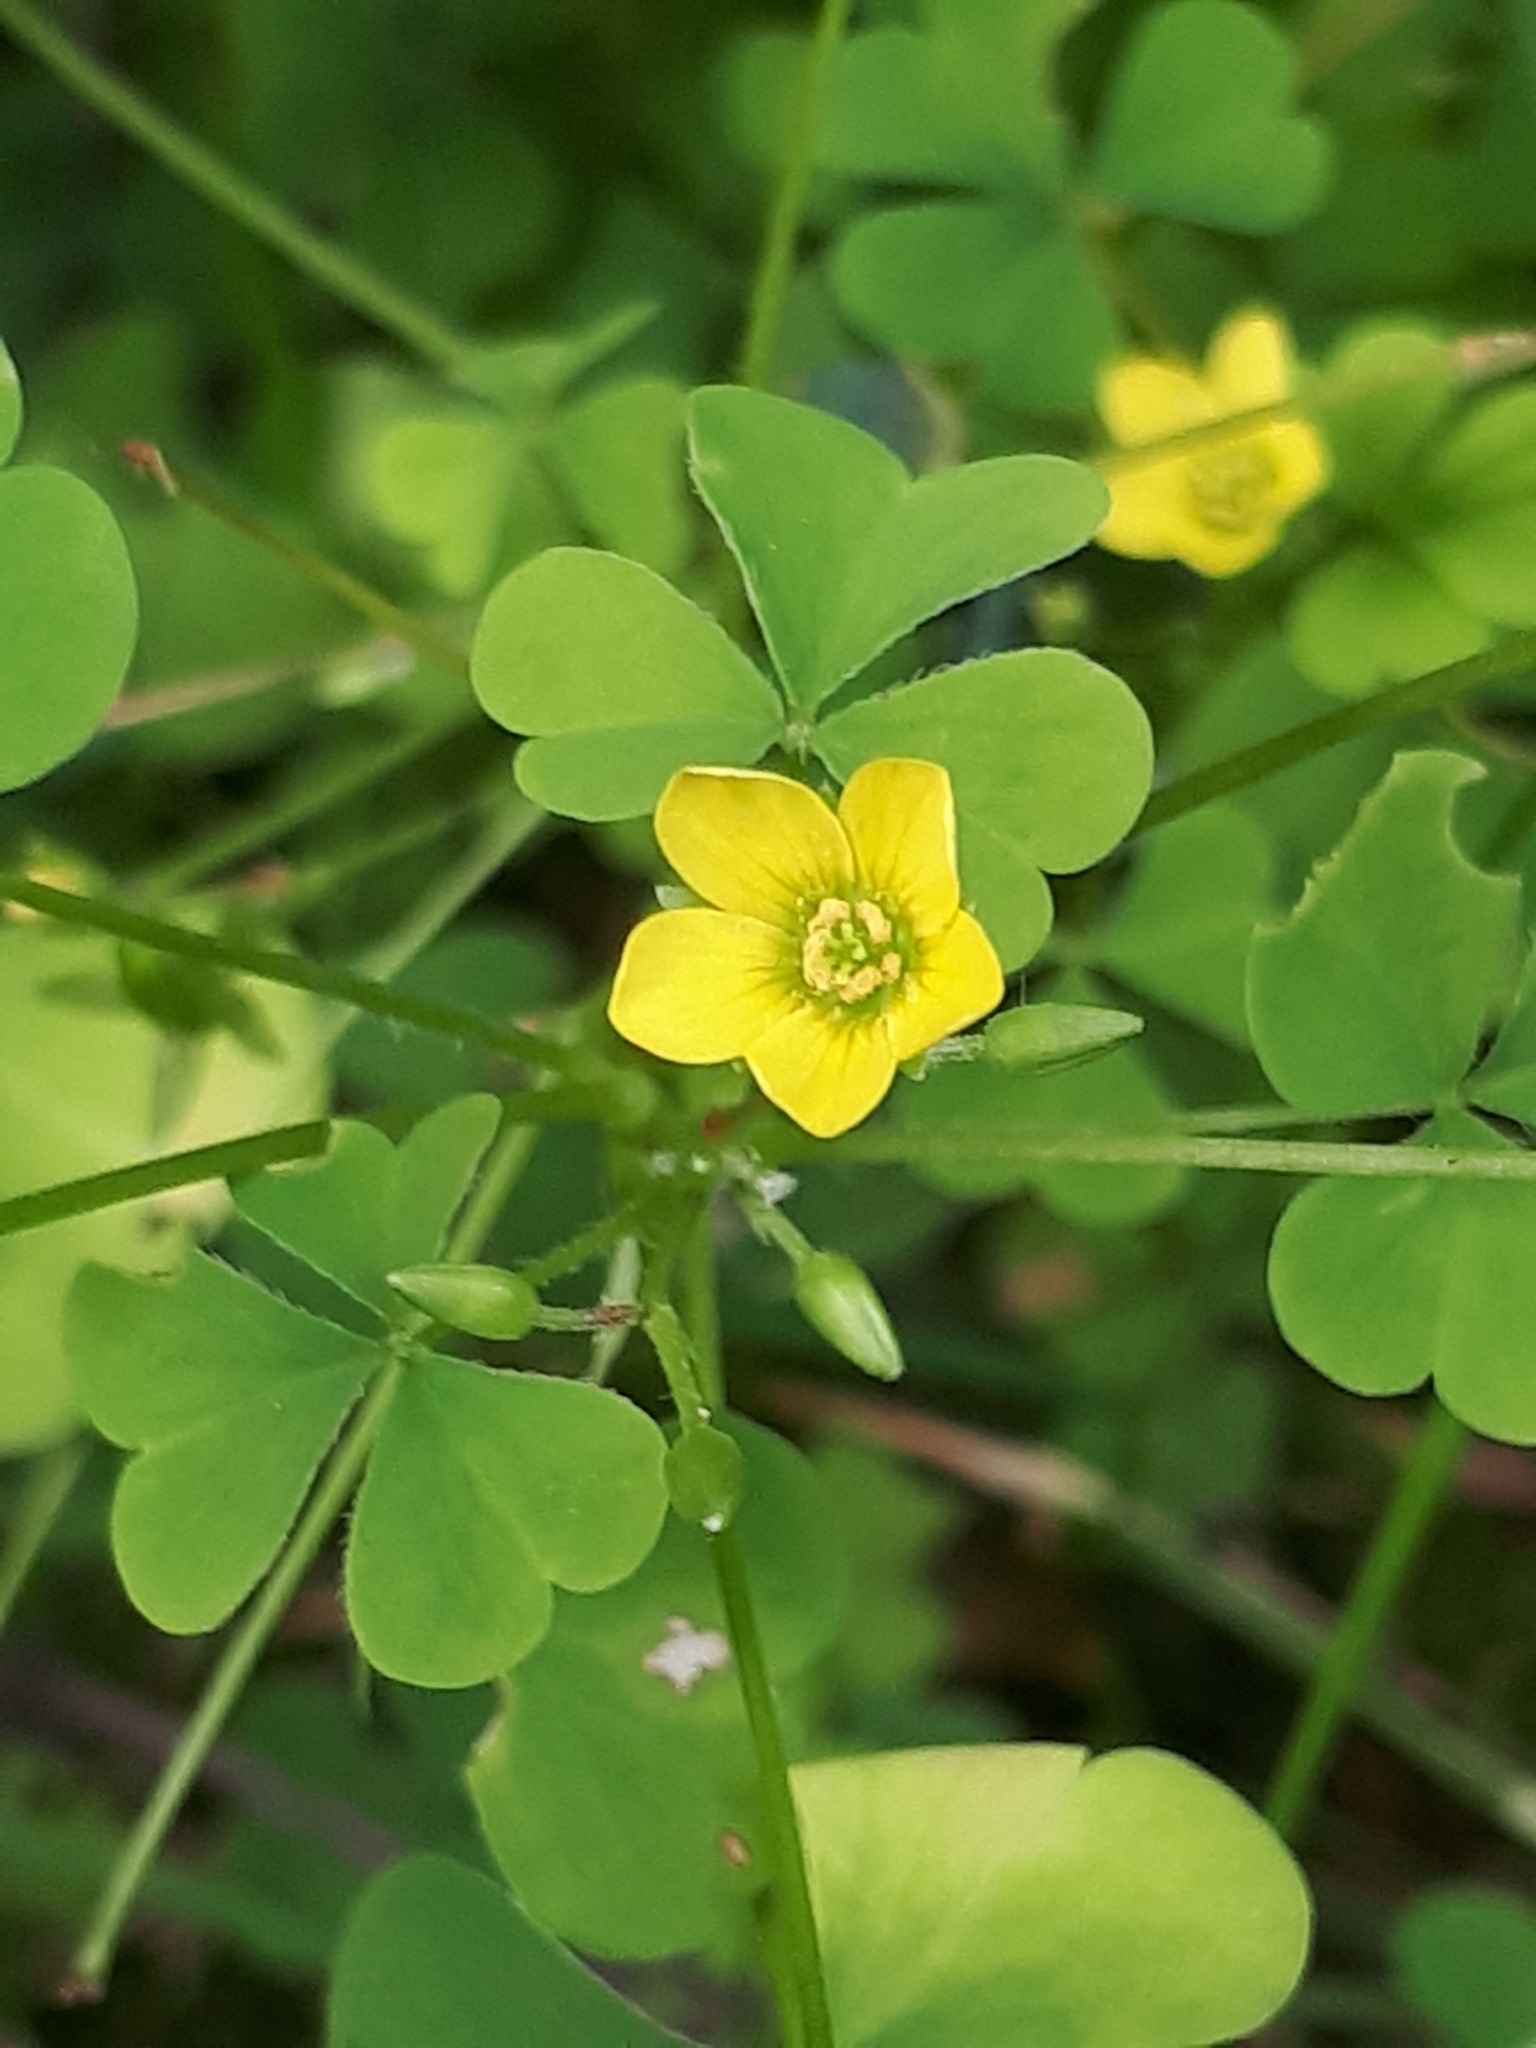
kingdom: Plantae
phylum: Tracheophyta
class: Magnoliopsida
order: Oxalidales
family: Oxalidaceae
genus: Oxalis
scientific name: Oxalis stricta
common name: Upright yellow-sorrel
